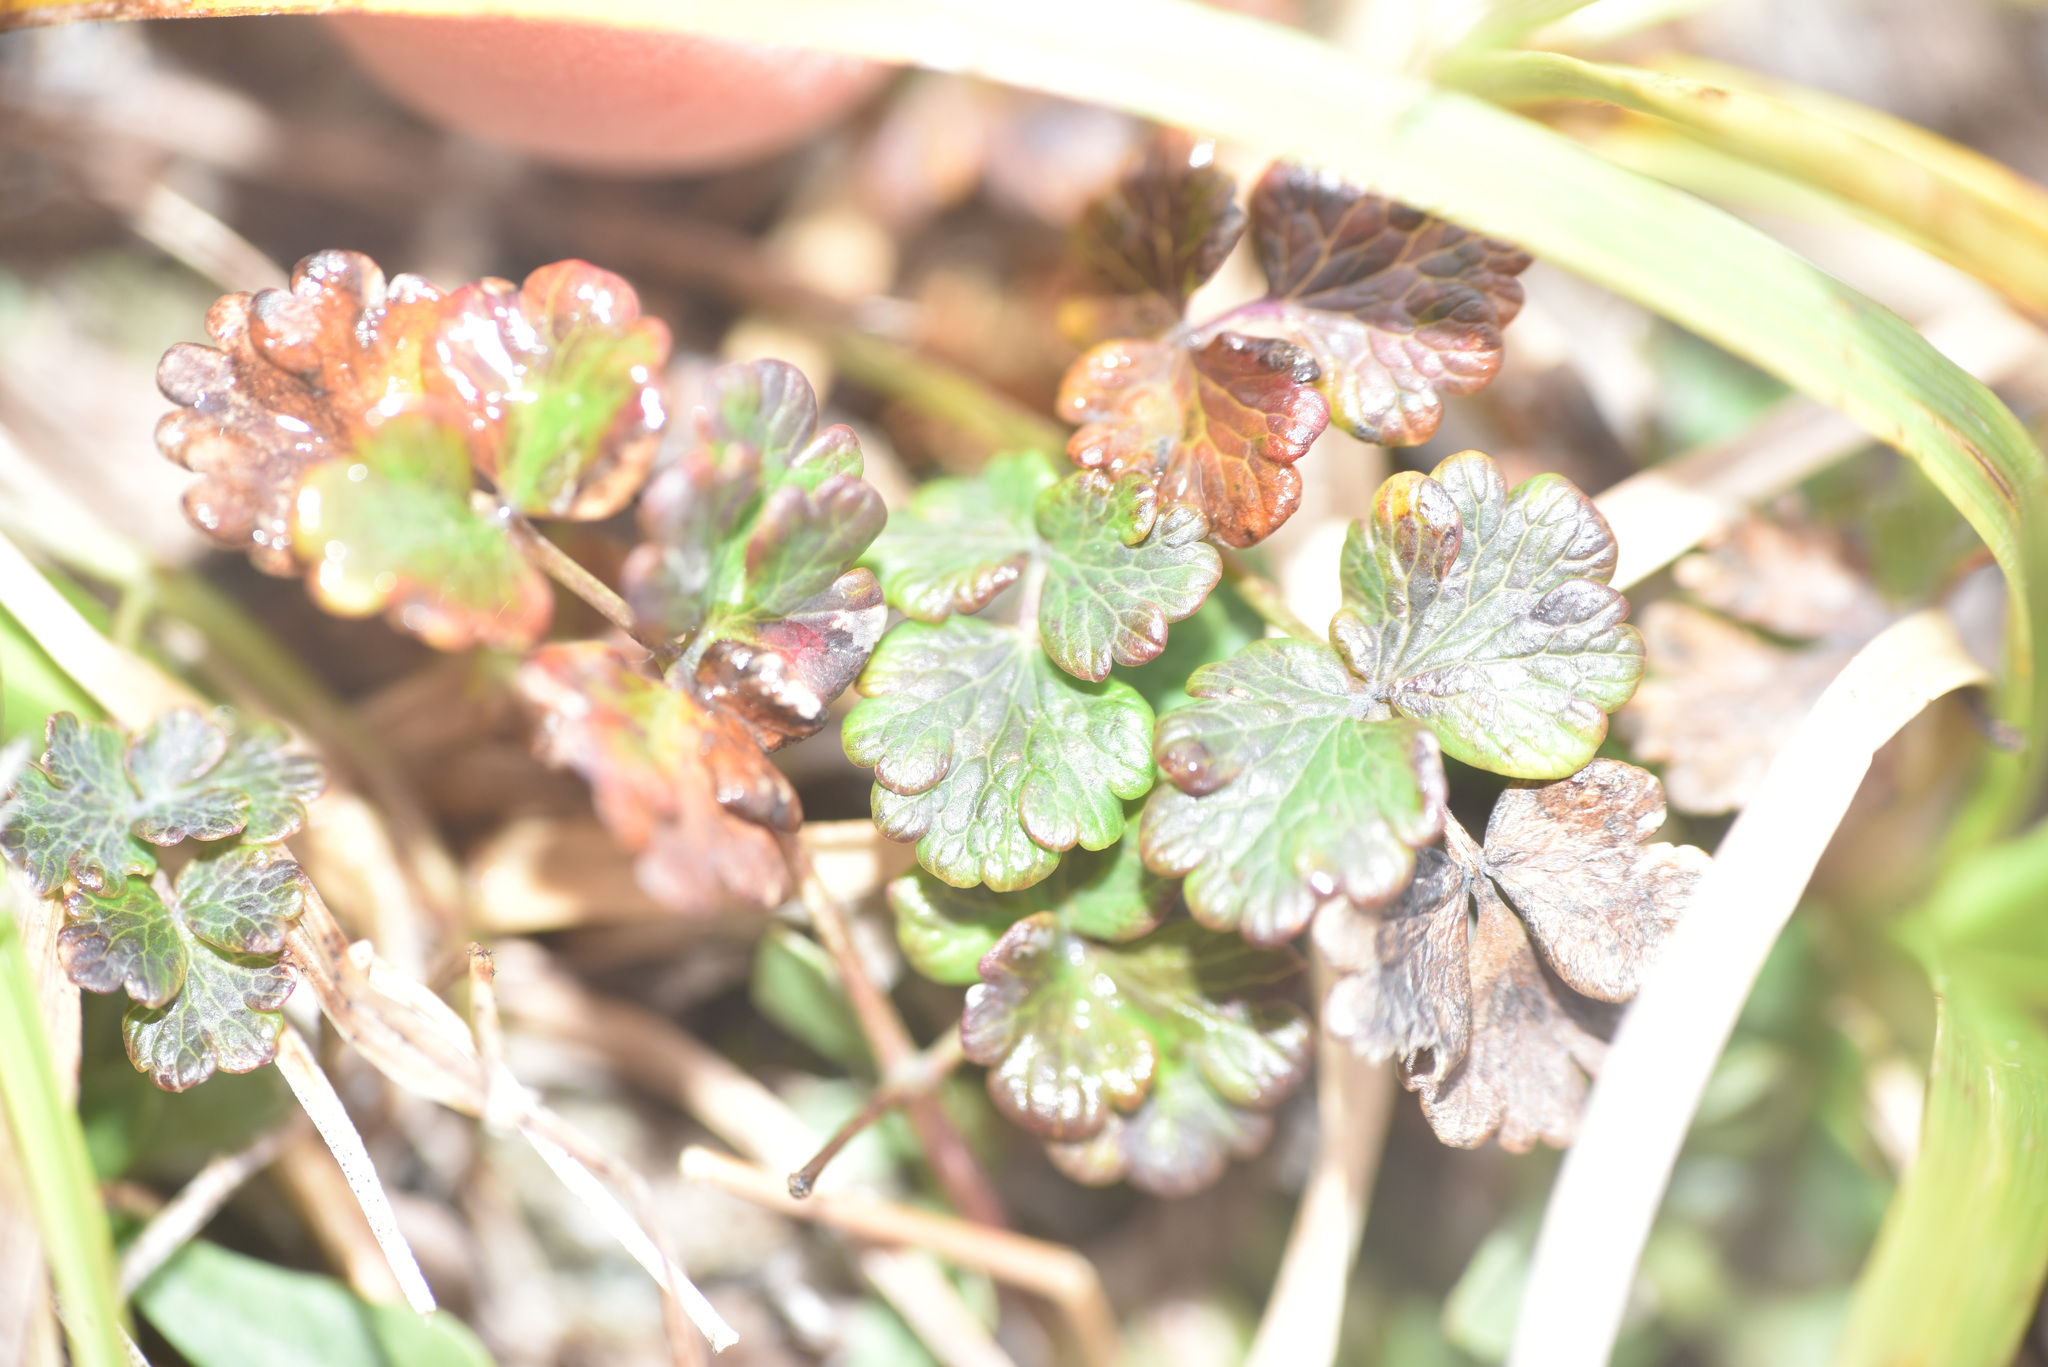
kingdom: Plantae
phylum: Tracheophyta
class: Magnoliopsida
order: Ranunculales
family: Ranunculaceae
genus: Thalictrum
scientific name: Thalictrum alpinum
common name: Alpine meadow-rue
